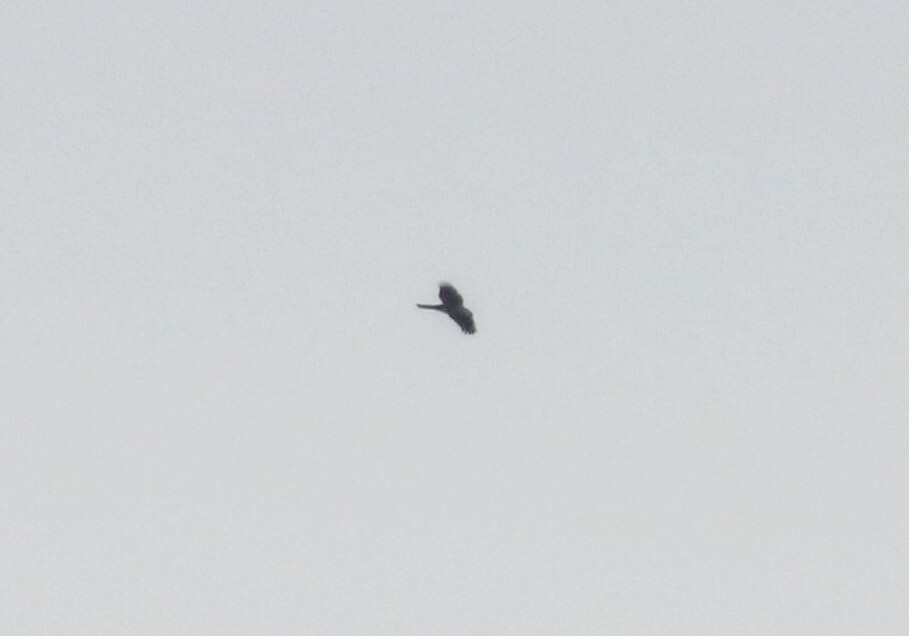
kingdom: Animalia
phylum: Chordata
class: Aves
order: Accipitriformes
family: Accipitridae
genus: Accipiter
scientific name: Accipiter
